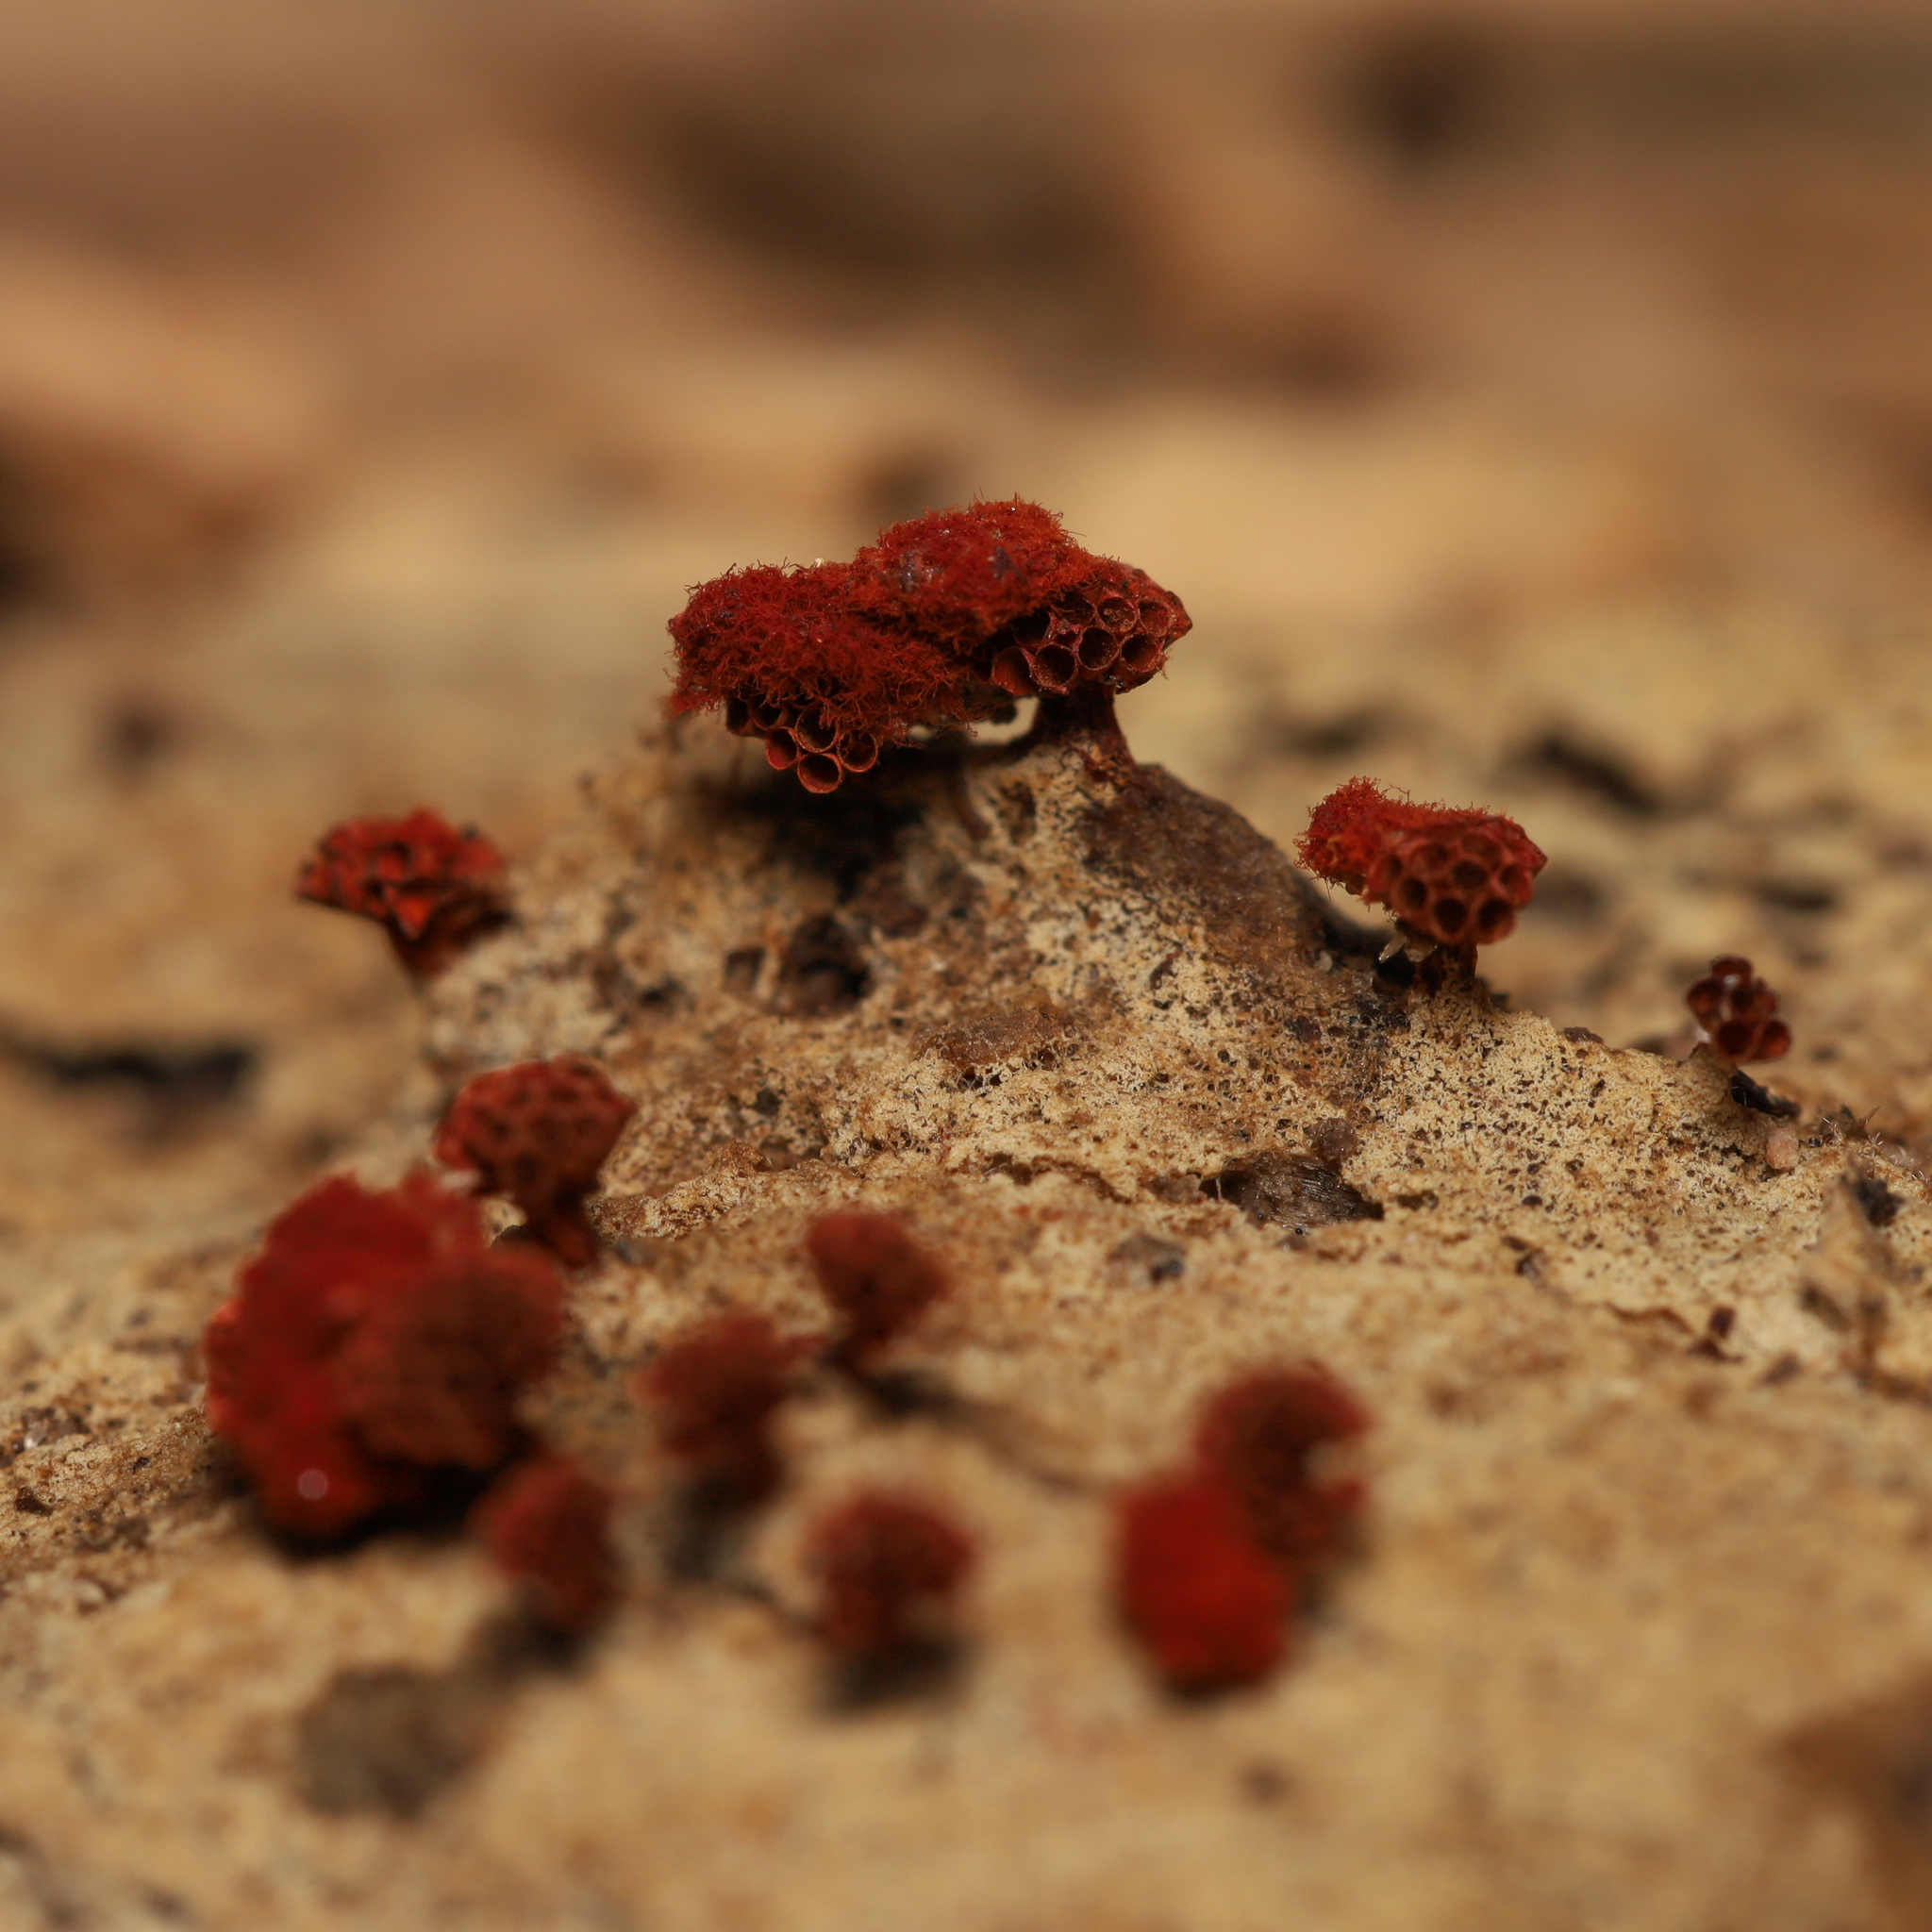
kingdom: Protozoa
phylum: Mycetozoa
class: Myxomycetes
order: Trichiales
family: Trichiaceae
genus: Metatrichia
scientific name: Metatrichia vesparia
